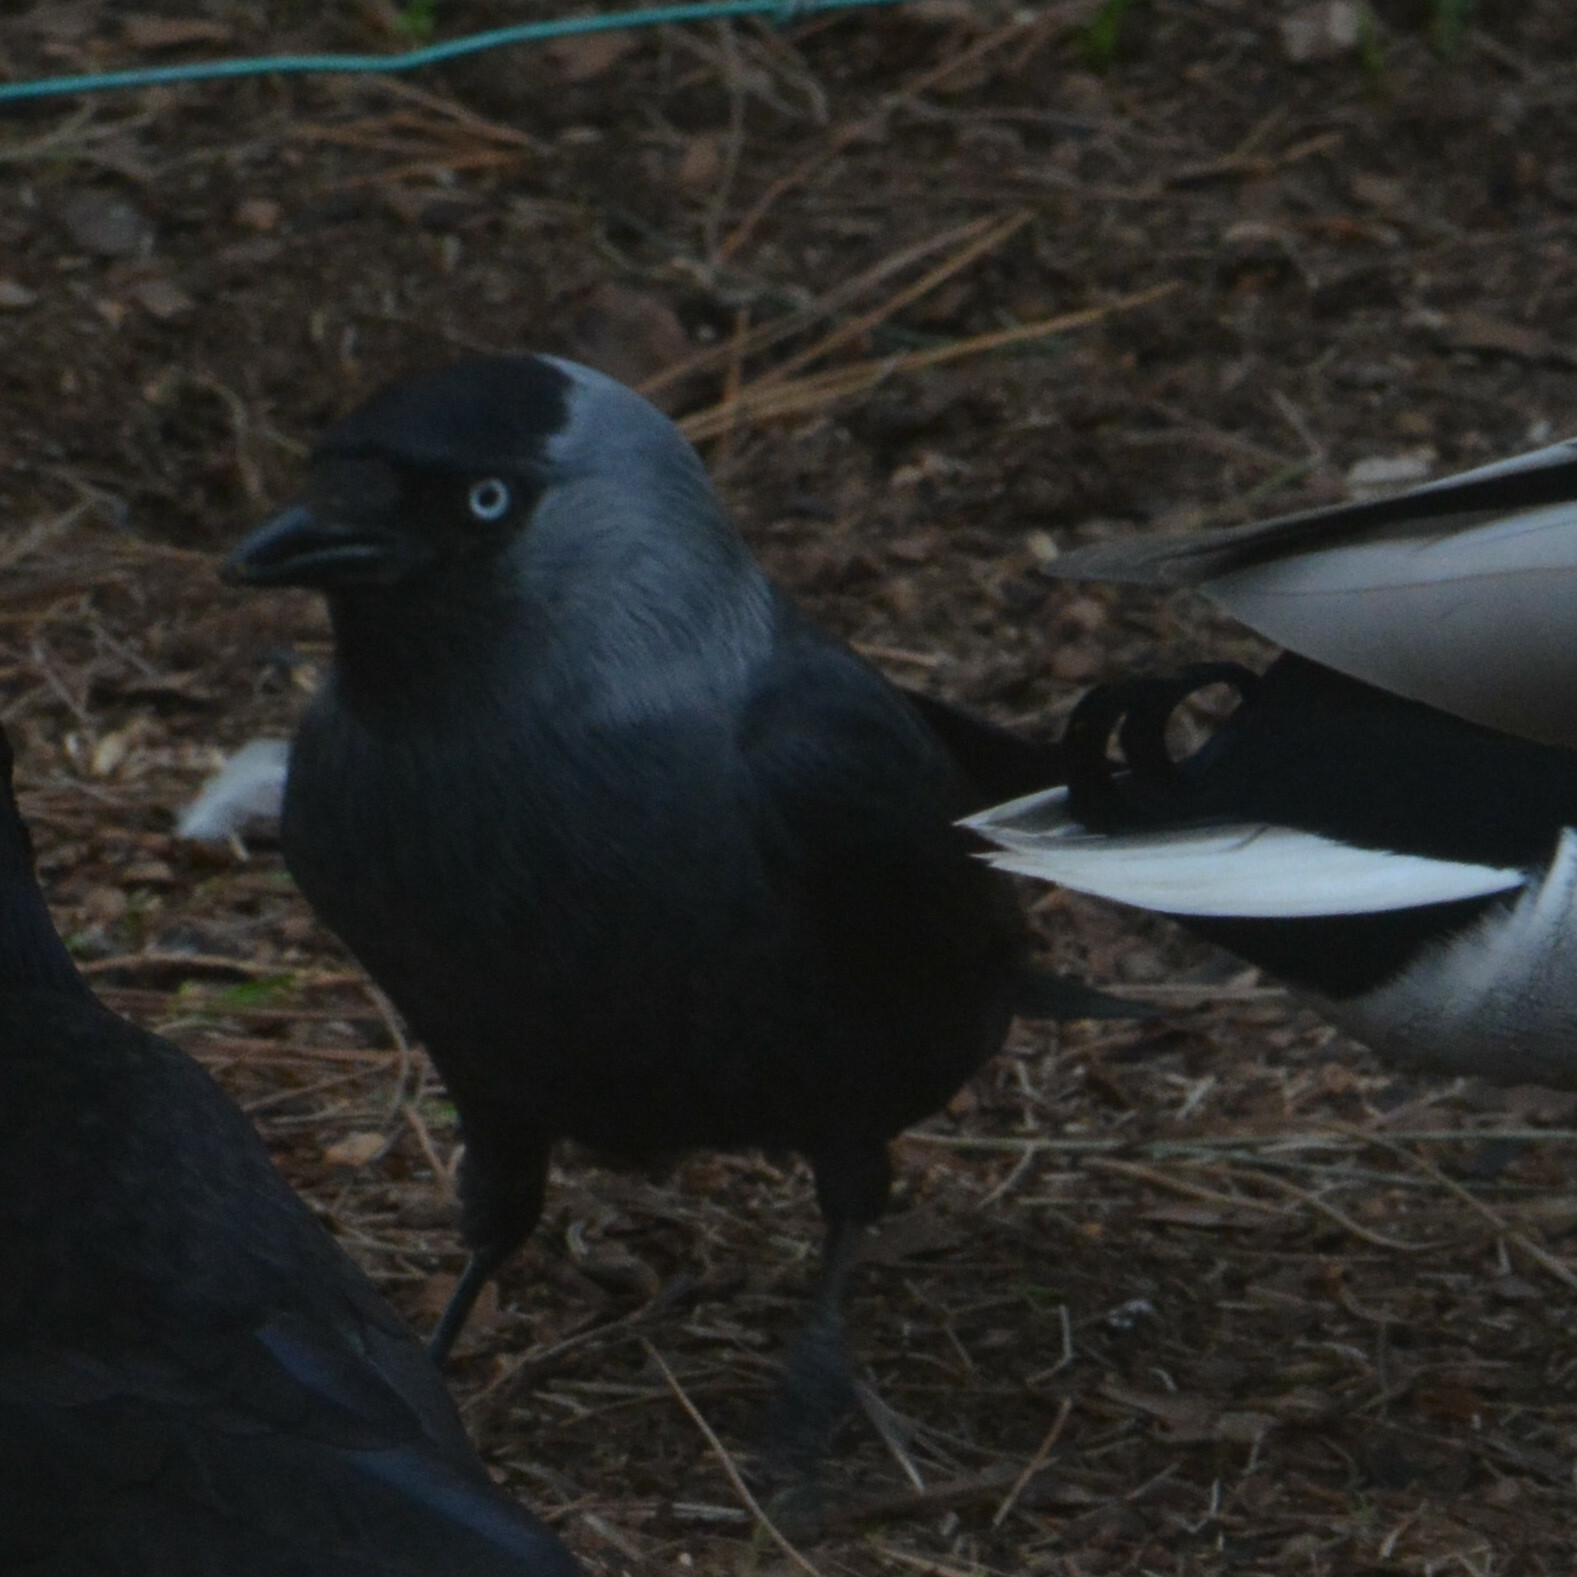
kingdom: Animalia
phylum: Chordata
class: Aves
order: Passeriformes
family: Corvidae
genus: Coloeus
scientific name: Coloeus monedula
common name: Western jackdaw
